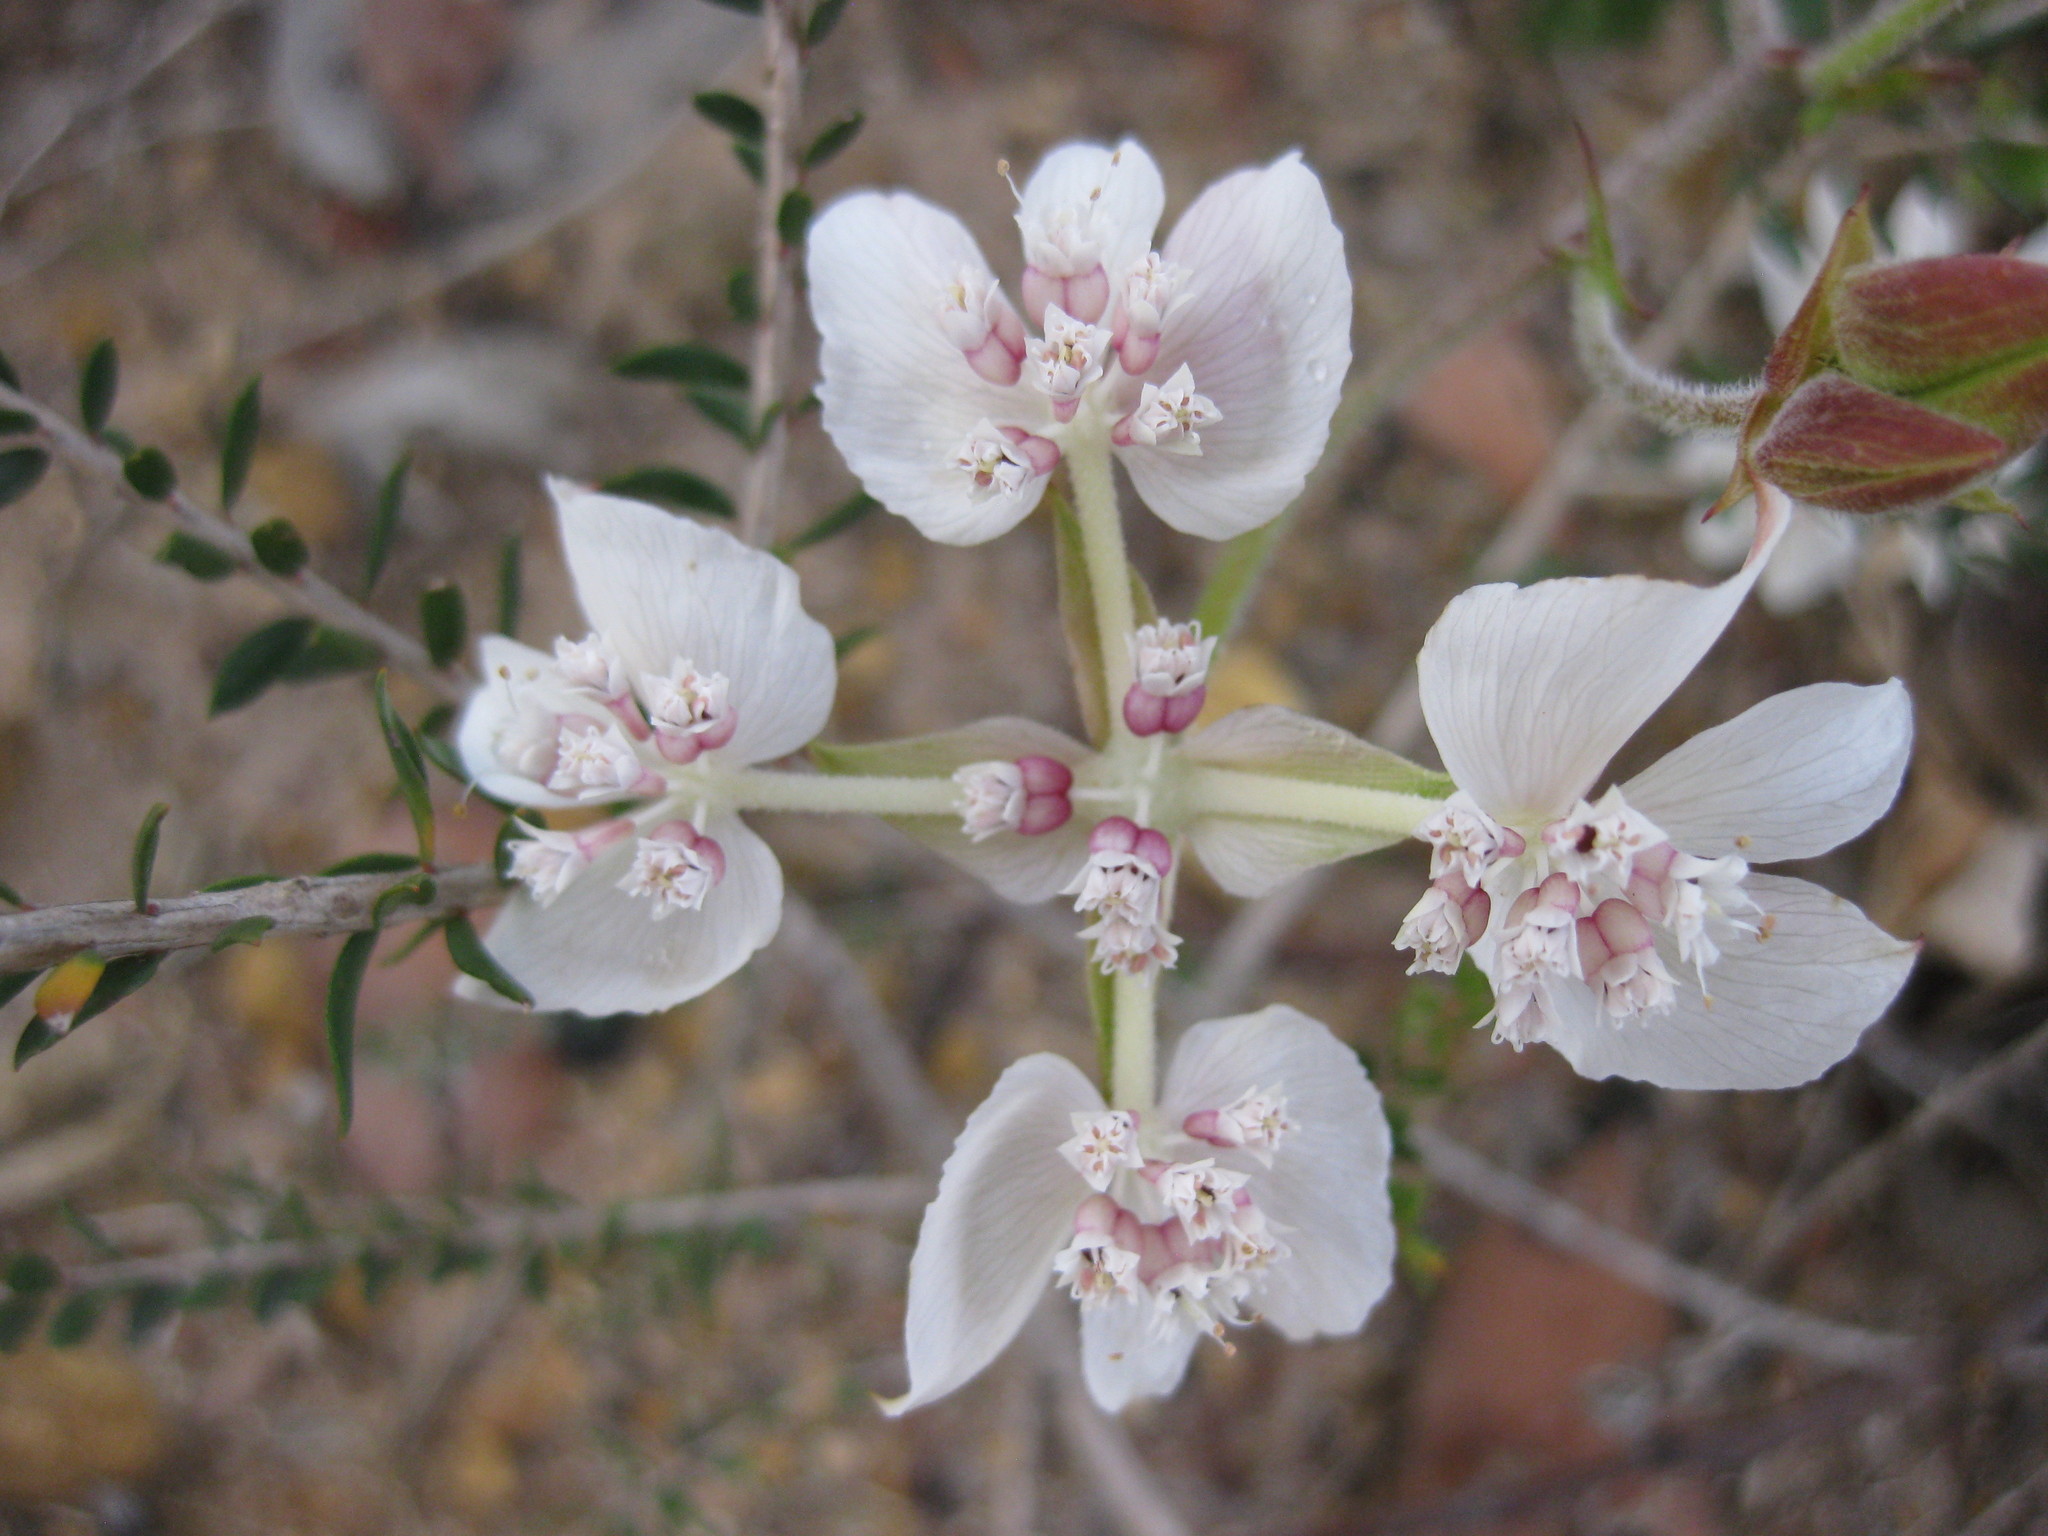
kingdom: Plantae
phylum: Tracheophyta
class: Magnoliopsida
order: Apiales
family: Apiaceae
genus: Xanthosia
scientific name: Xanthosia rotundifolia
